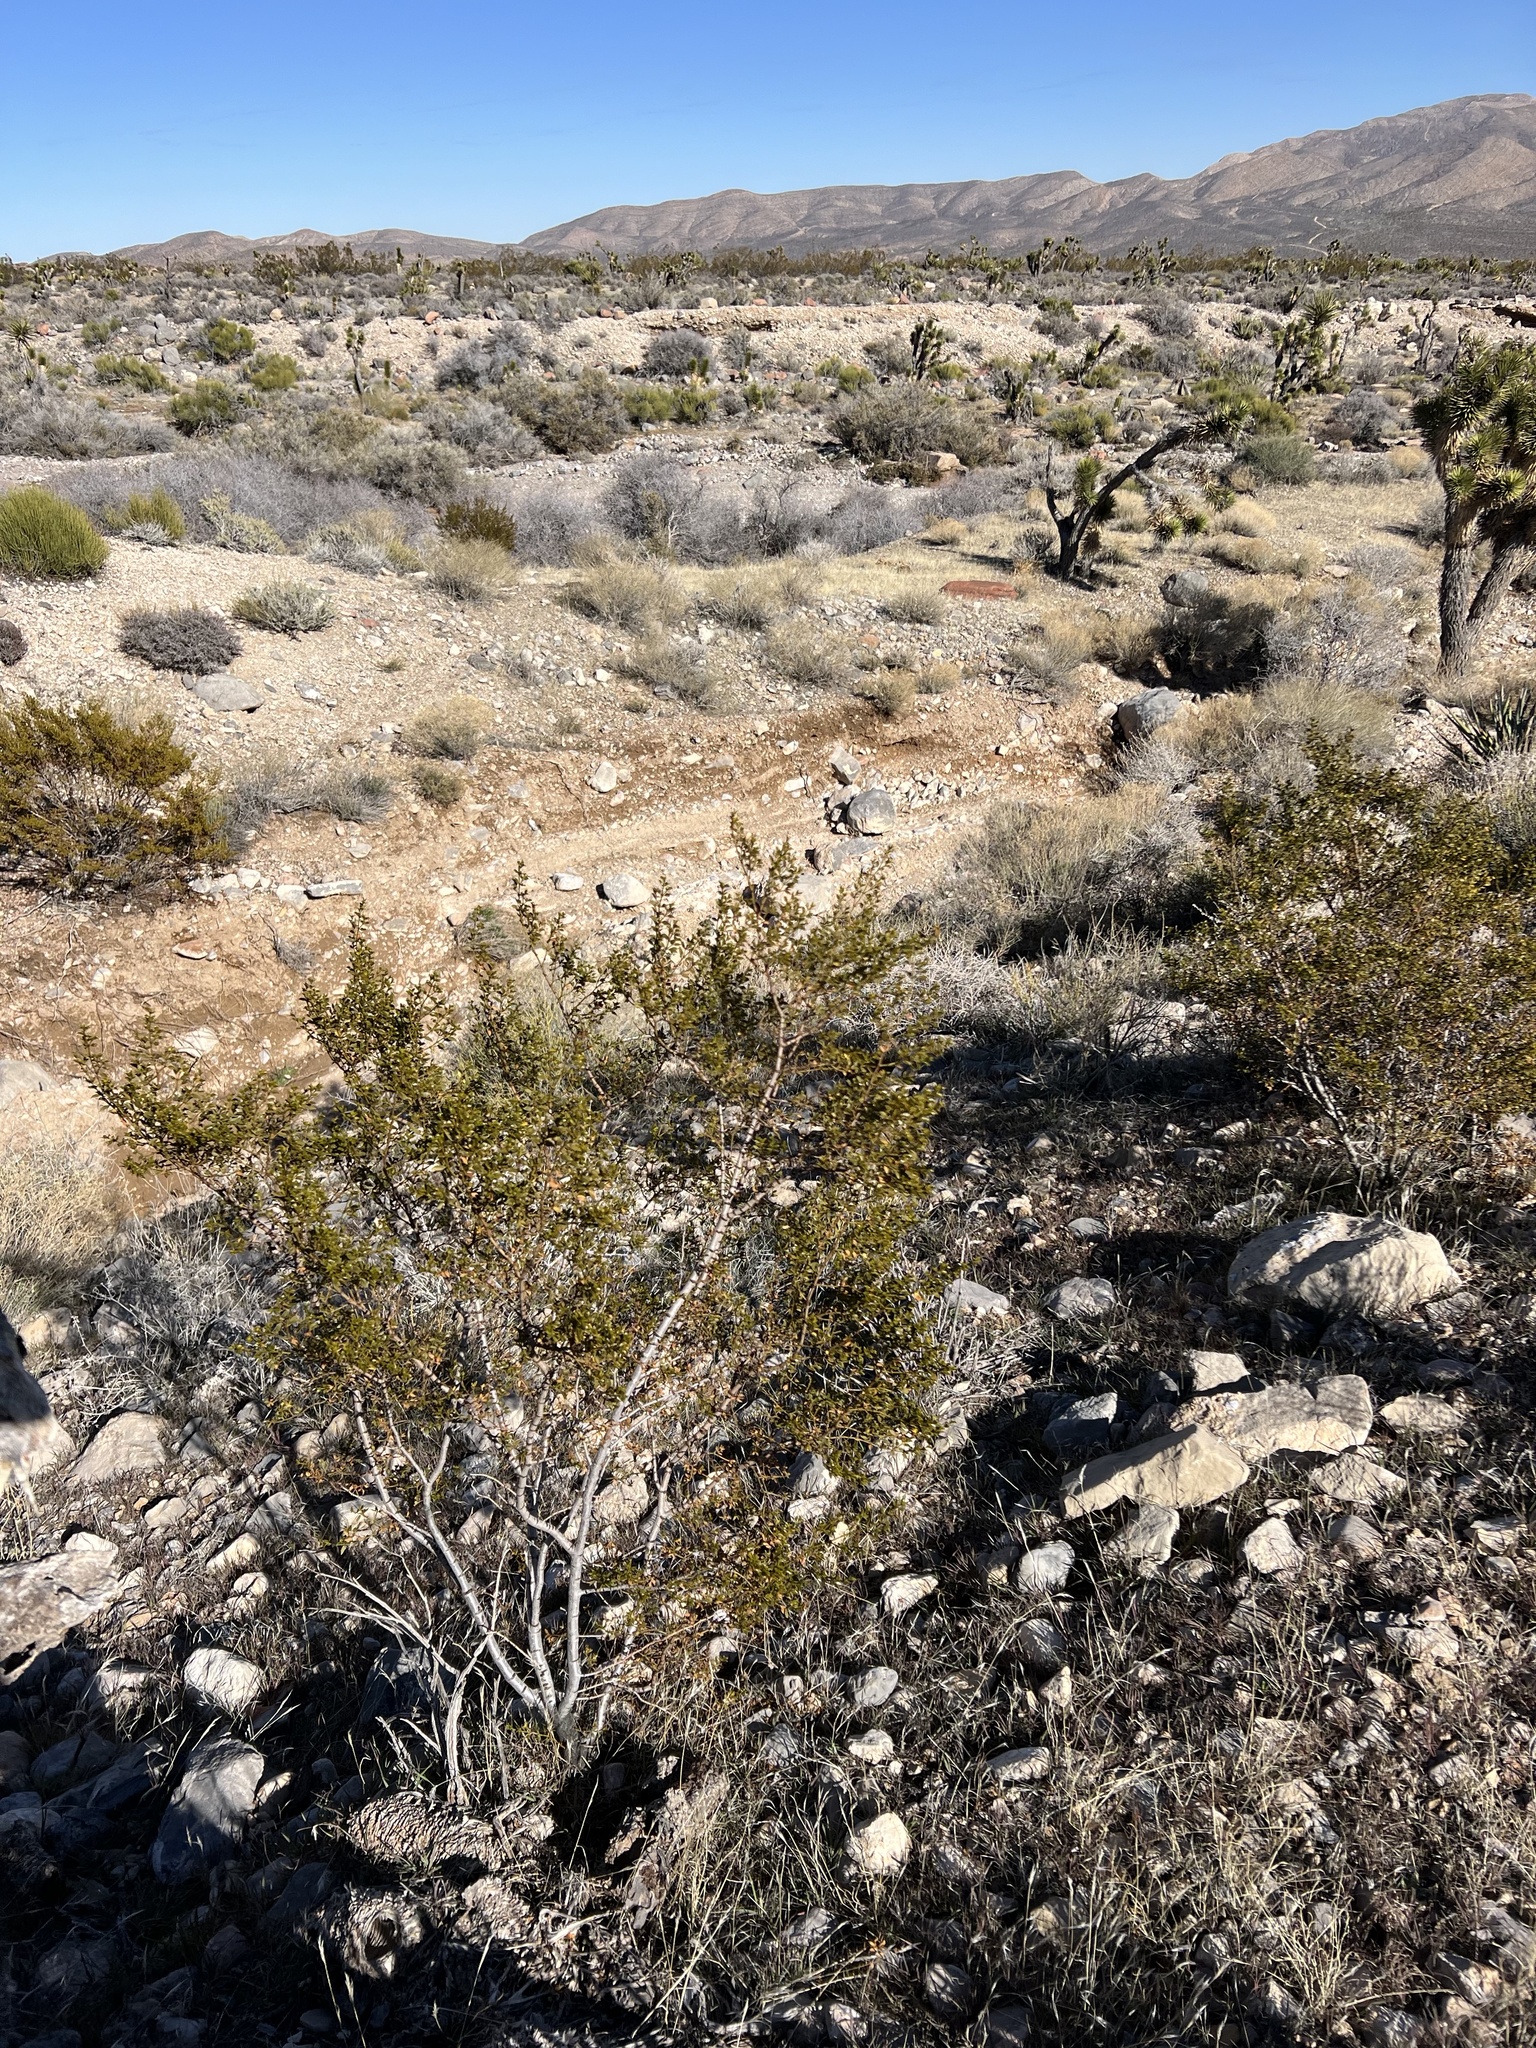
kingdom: Plantae
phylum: Tracheophyta
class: Magnoliopsida
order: Zygophyllales
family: Zygophyllaceae
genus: Larrea
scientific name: Larrea tridentata
